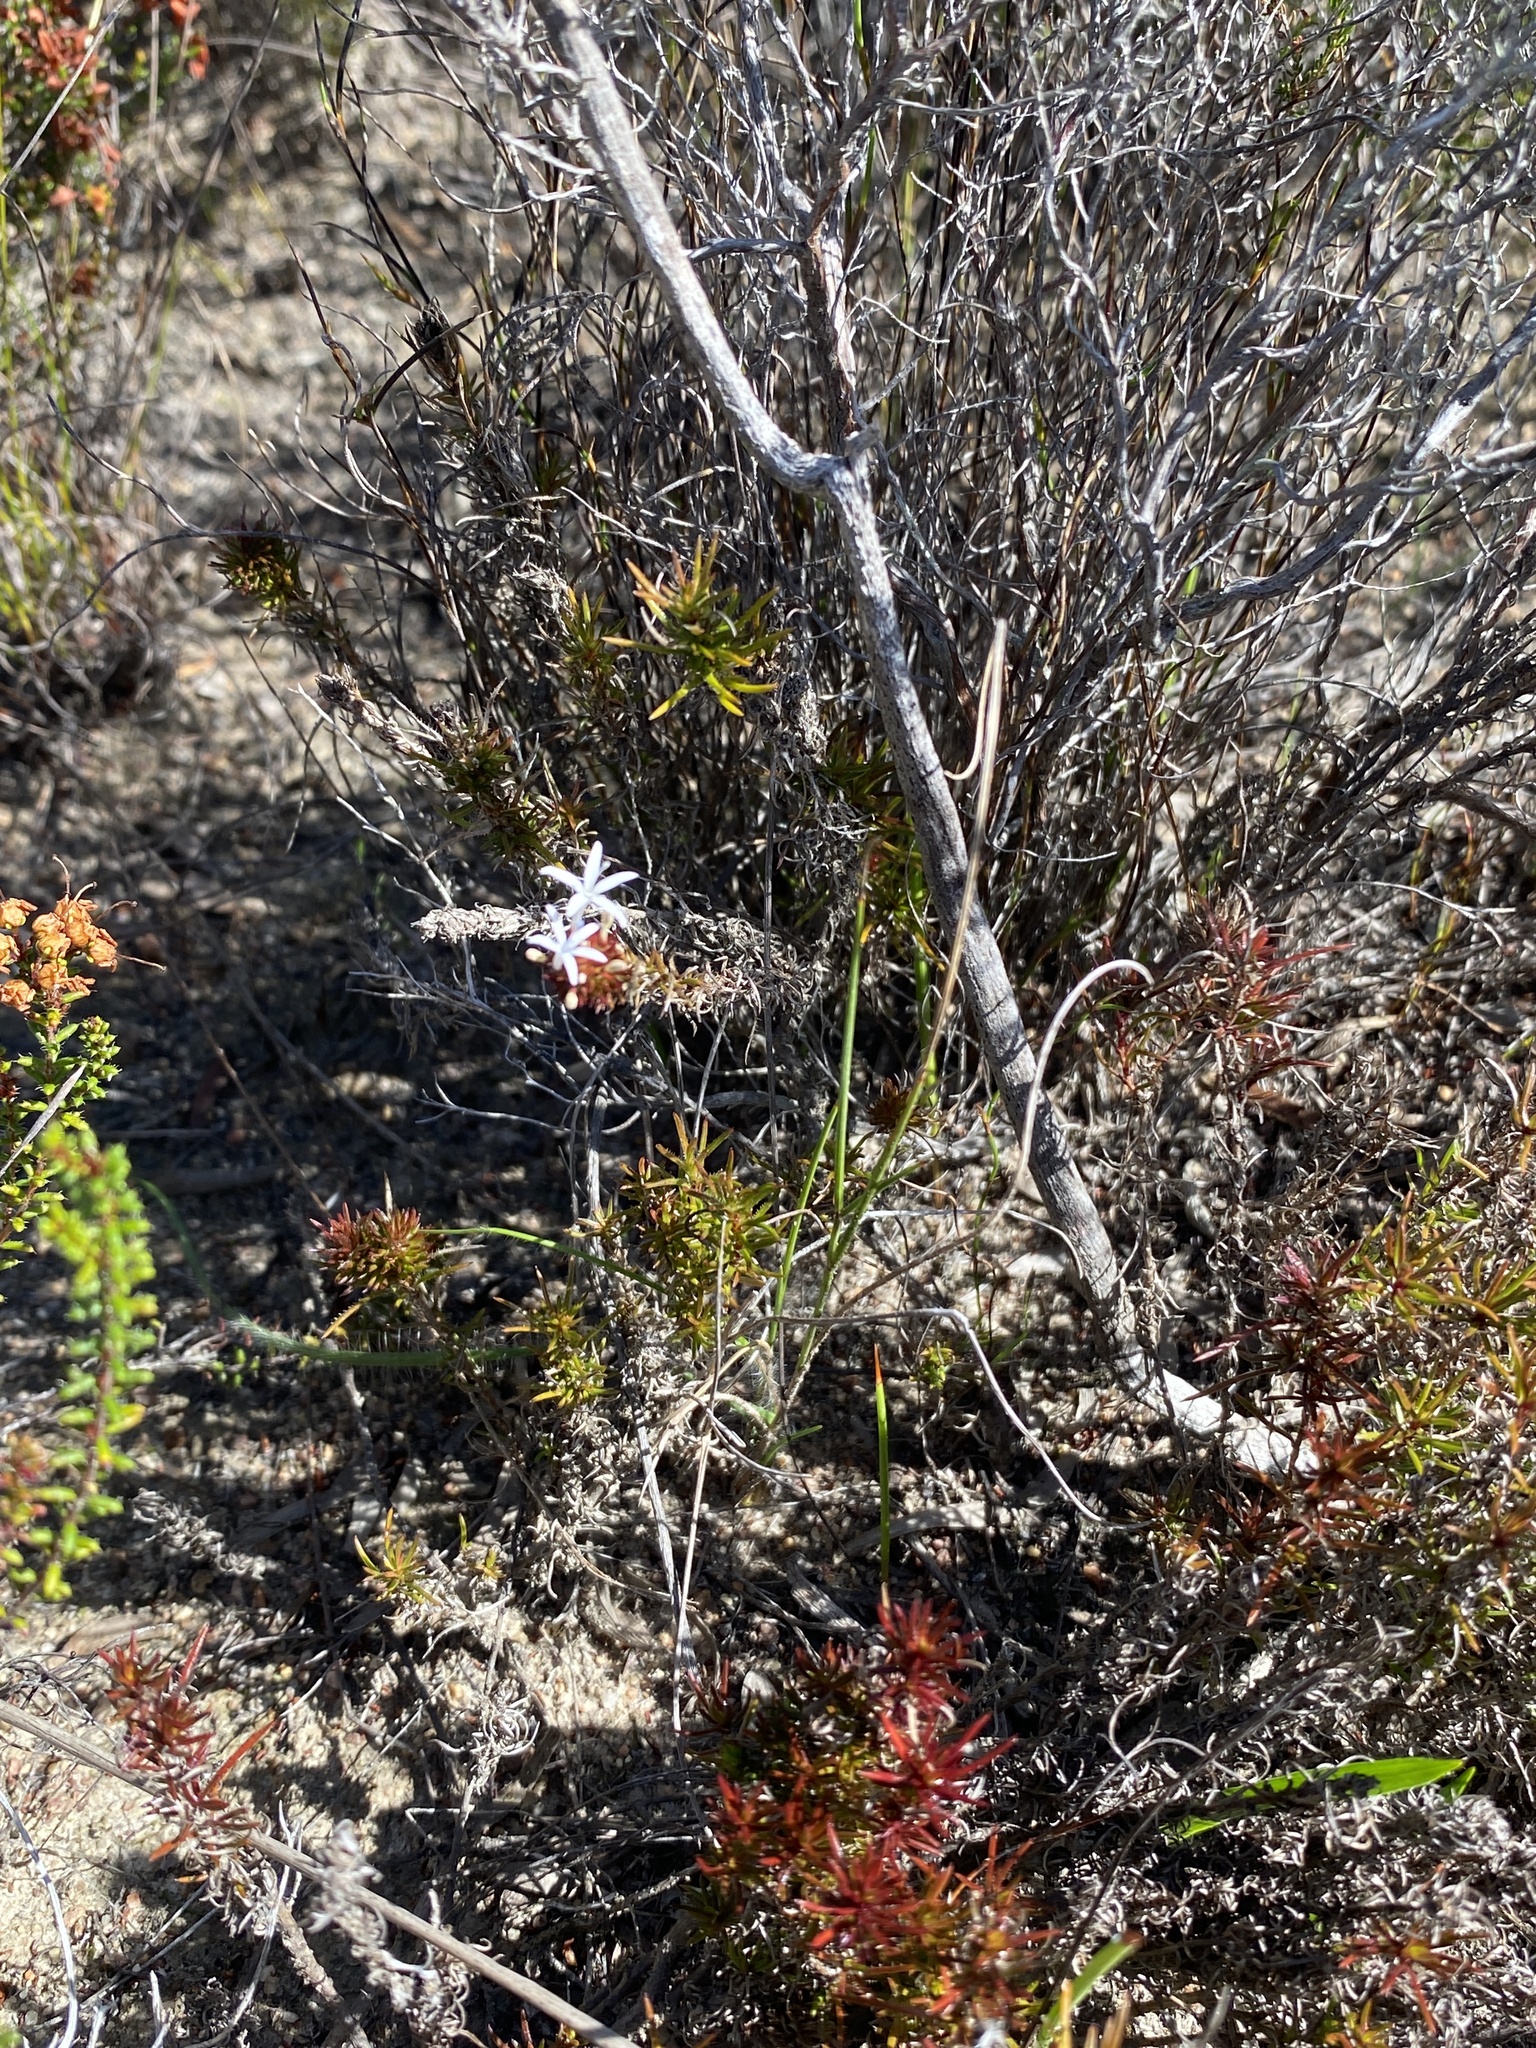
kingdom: Plantae
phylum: Tracheophyta
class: Magnoliopsida
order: Asterales
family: Campanulaceae
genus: Merciera
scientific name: Merciera leptoloba
